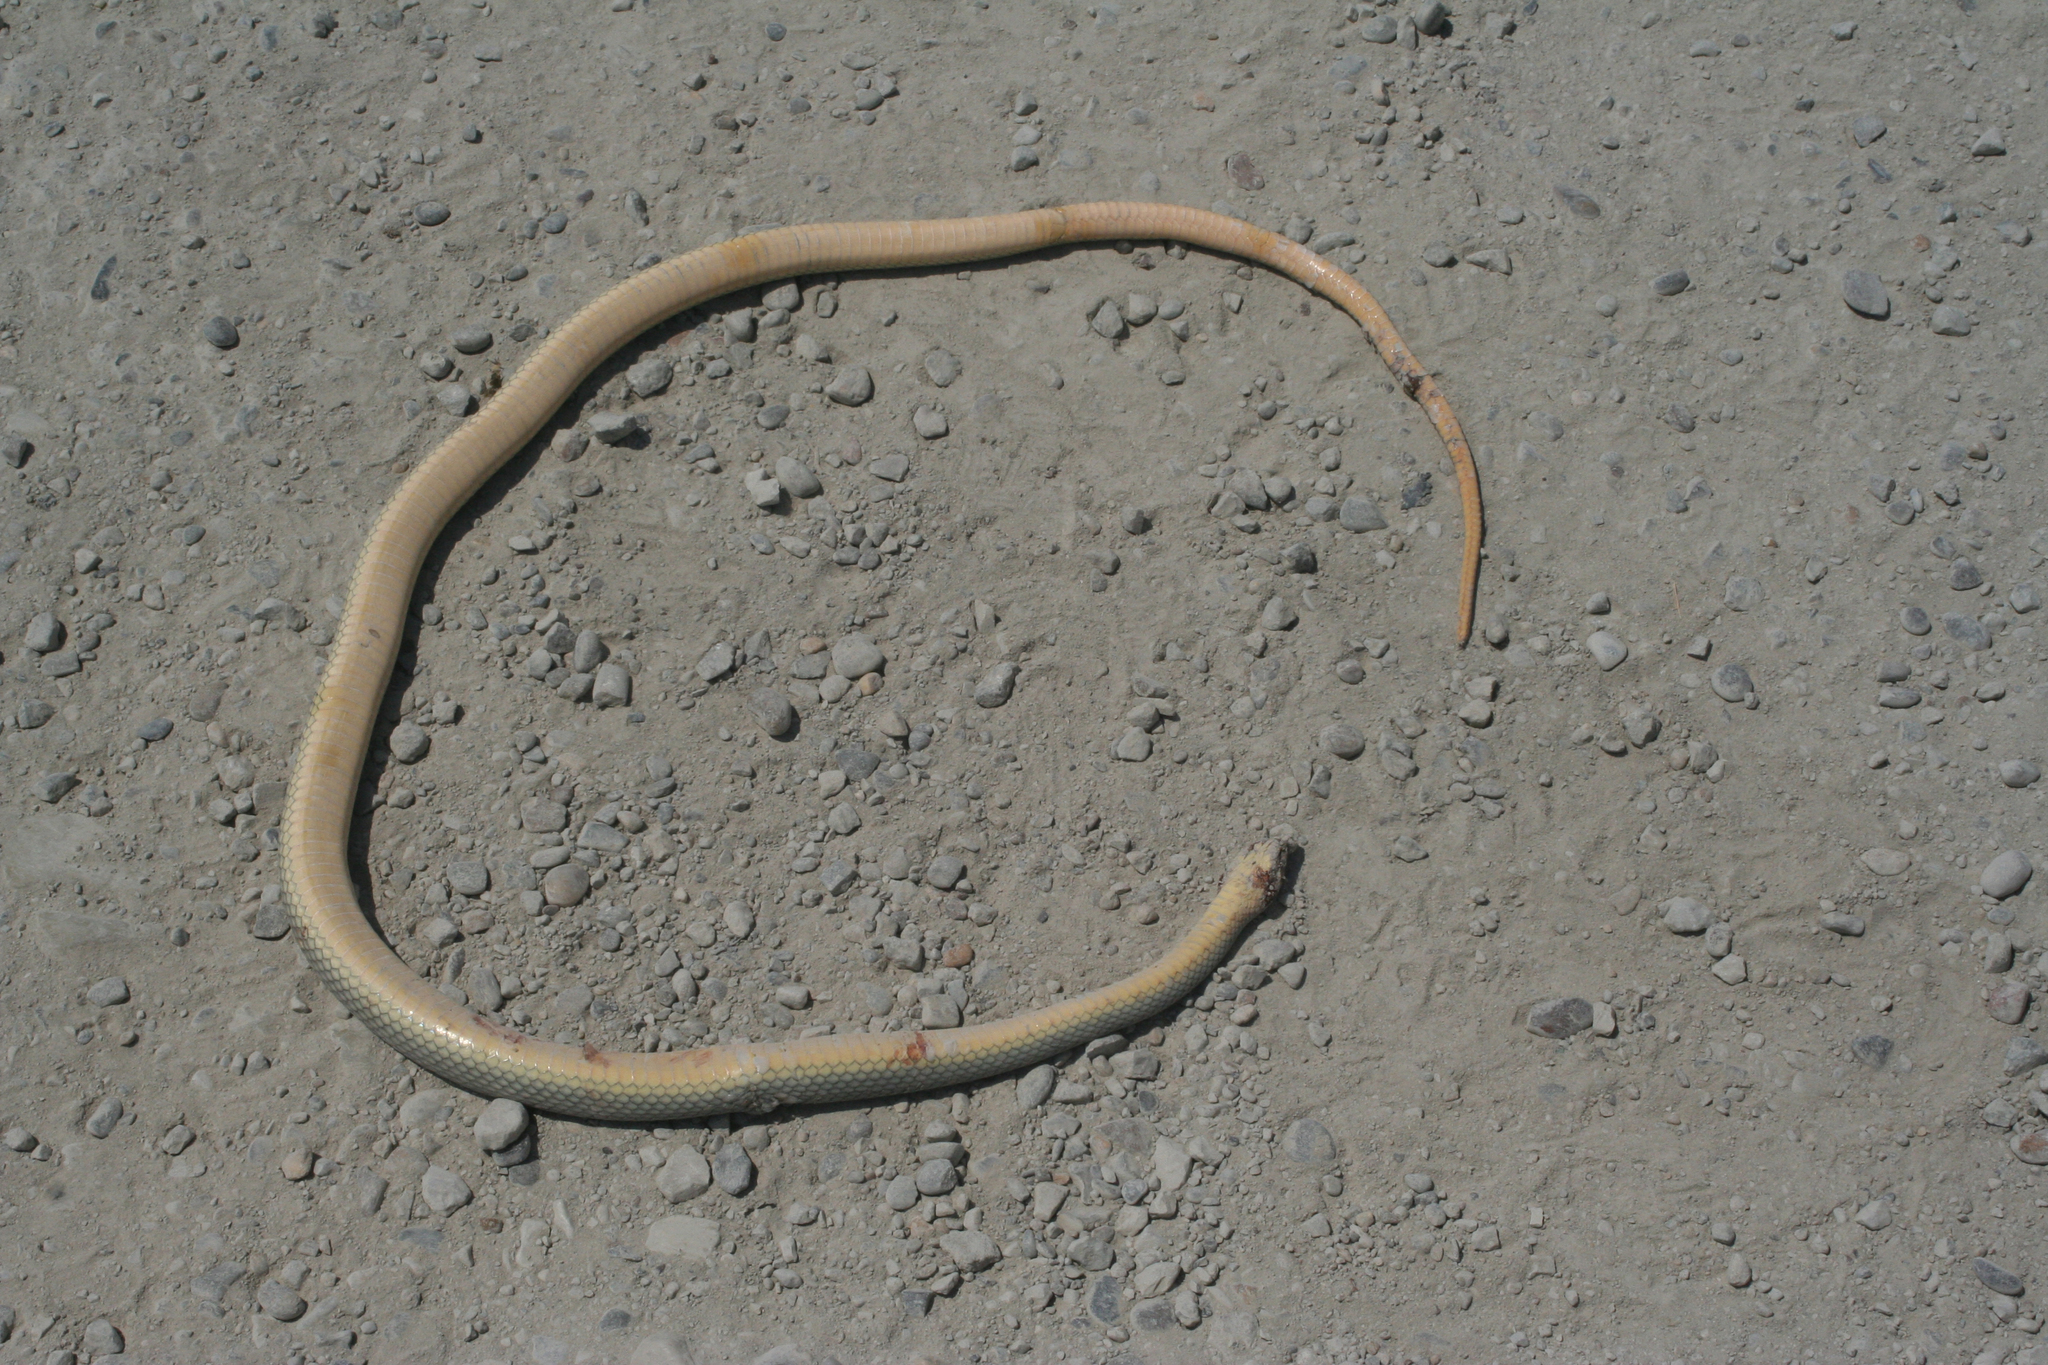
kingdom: Animalia
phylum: Chordata
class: Squamata
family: Colubridae
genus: Dolichophis
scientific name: Dolichophis caspius
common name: Large whip snake
